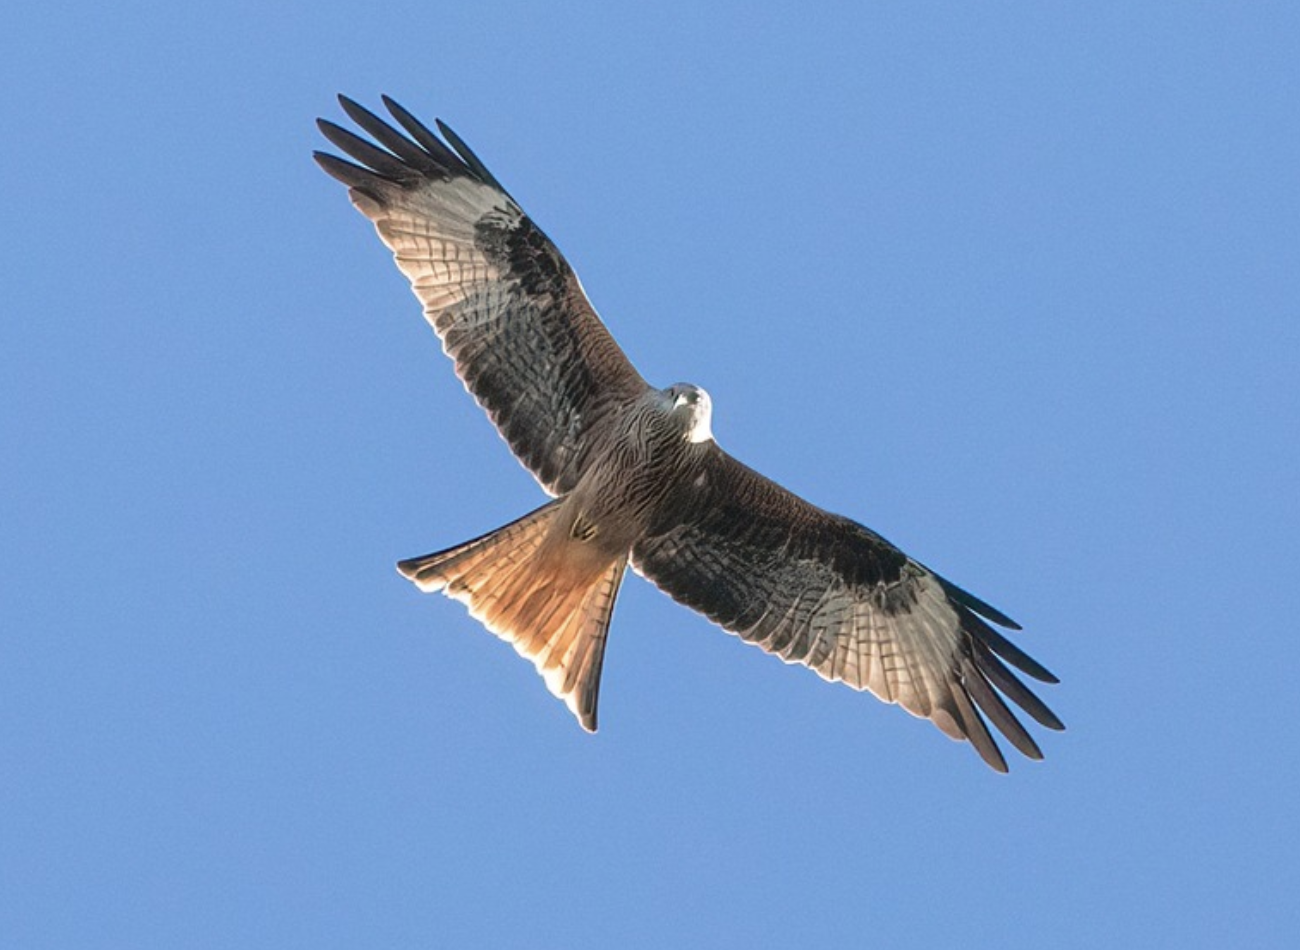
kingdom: Animalia
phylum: Chordata
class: Aves
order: Accipitriformes
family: Accipitridae
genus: Milvus
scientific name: Milvus milvus
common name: Red kite
